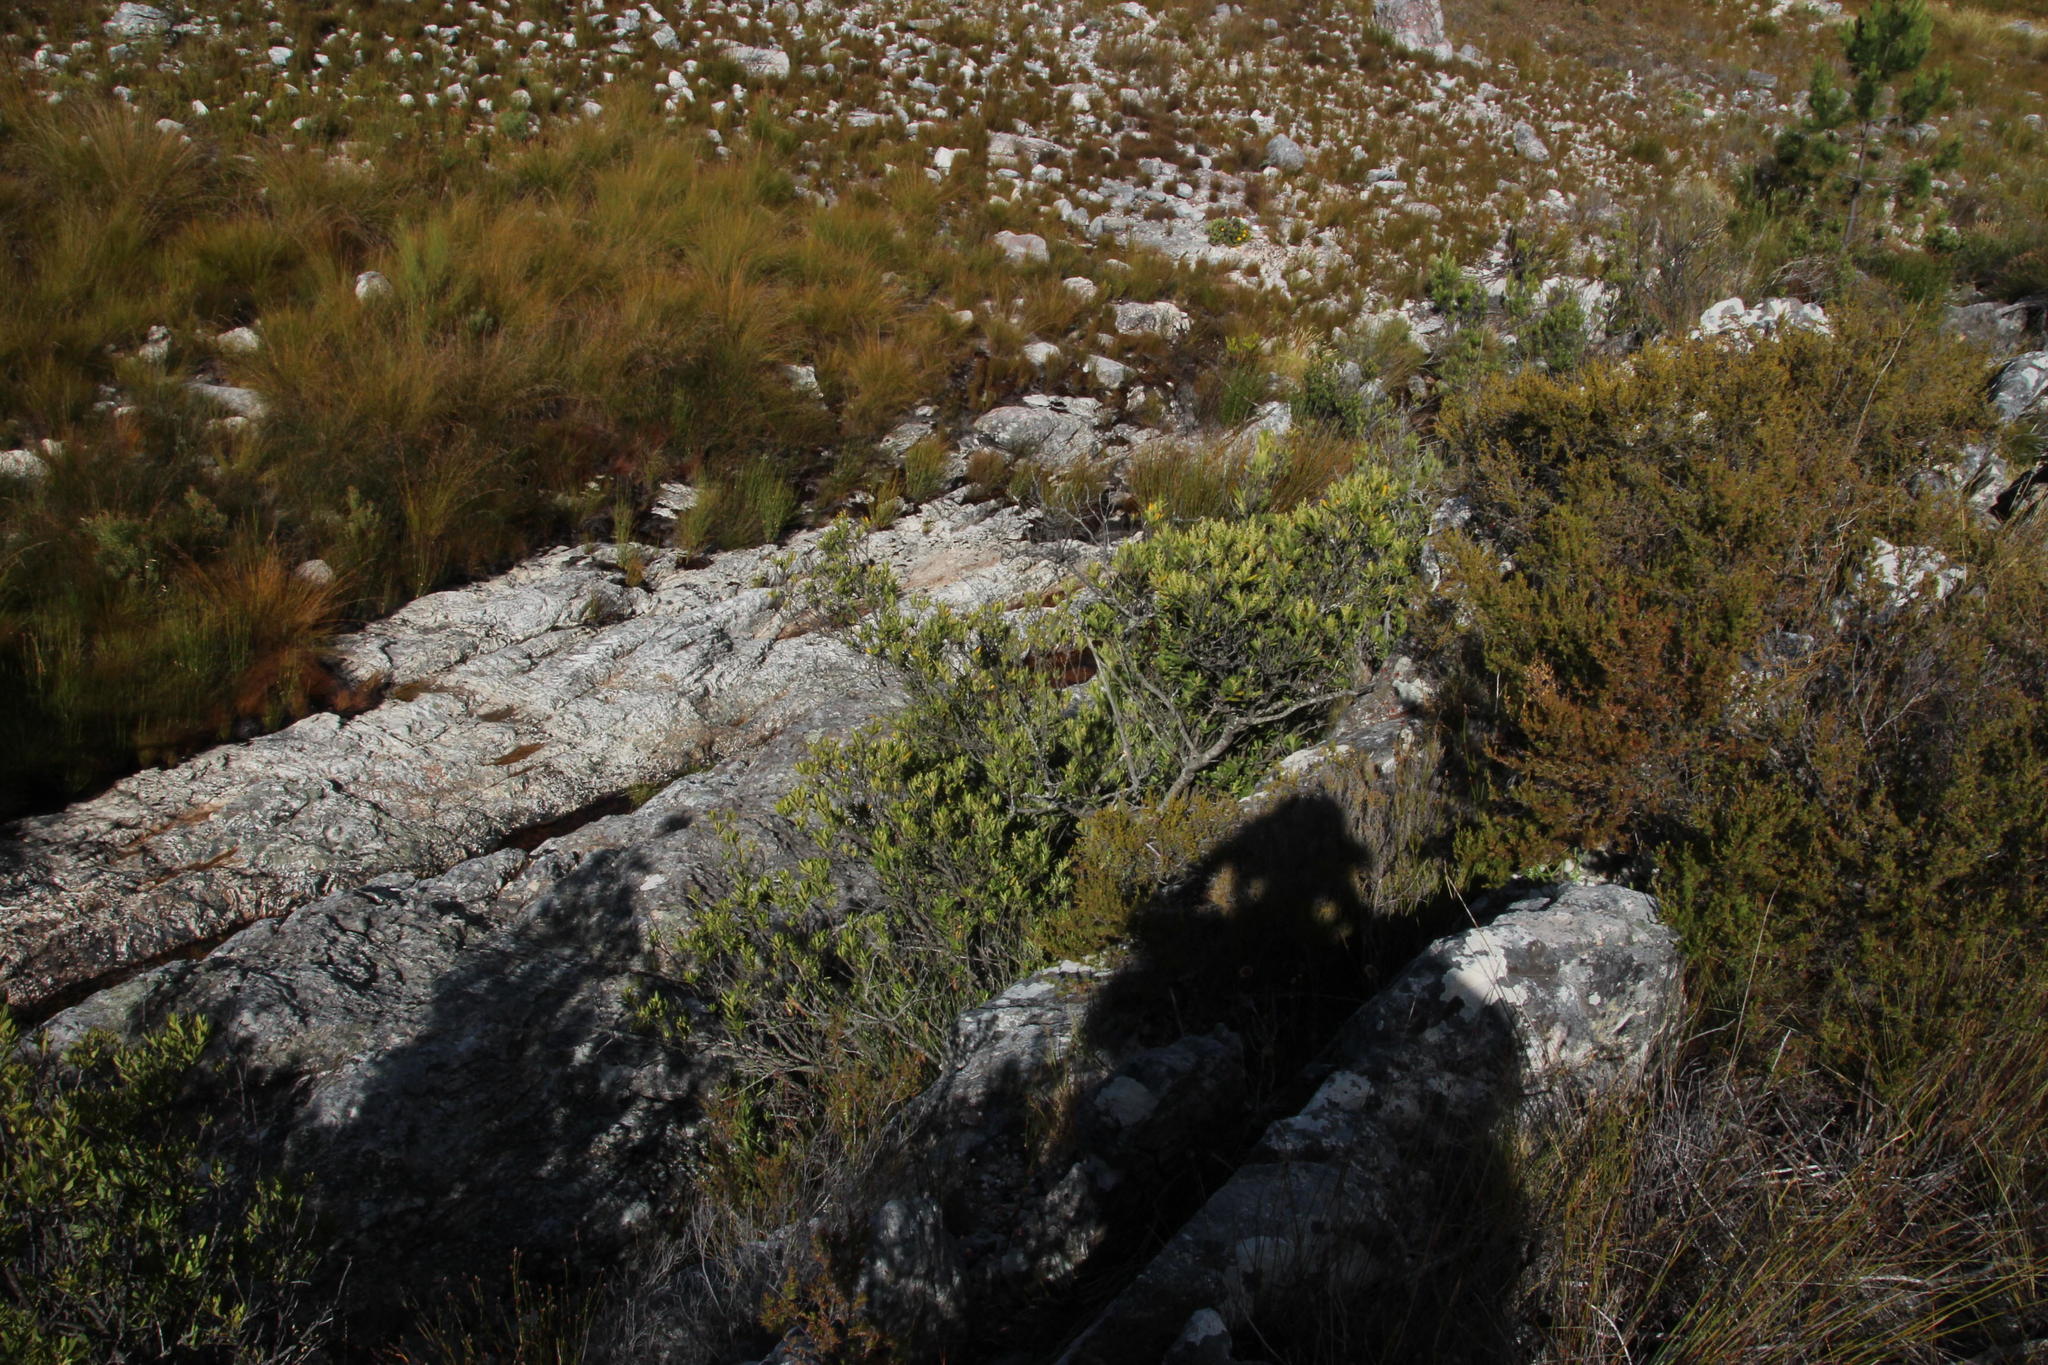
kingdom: Plantae
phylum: Tracheophyta
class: Magnoliopsida
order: Sapindales
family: Rutaceae
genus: Agathosma
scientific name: Agathosma crenulata
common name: Oval buchu
